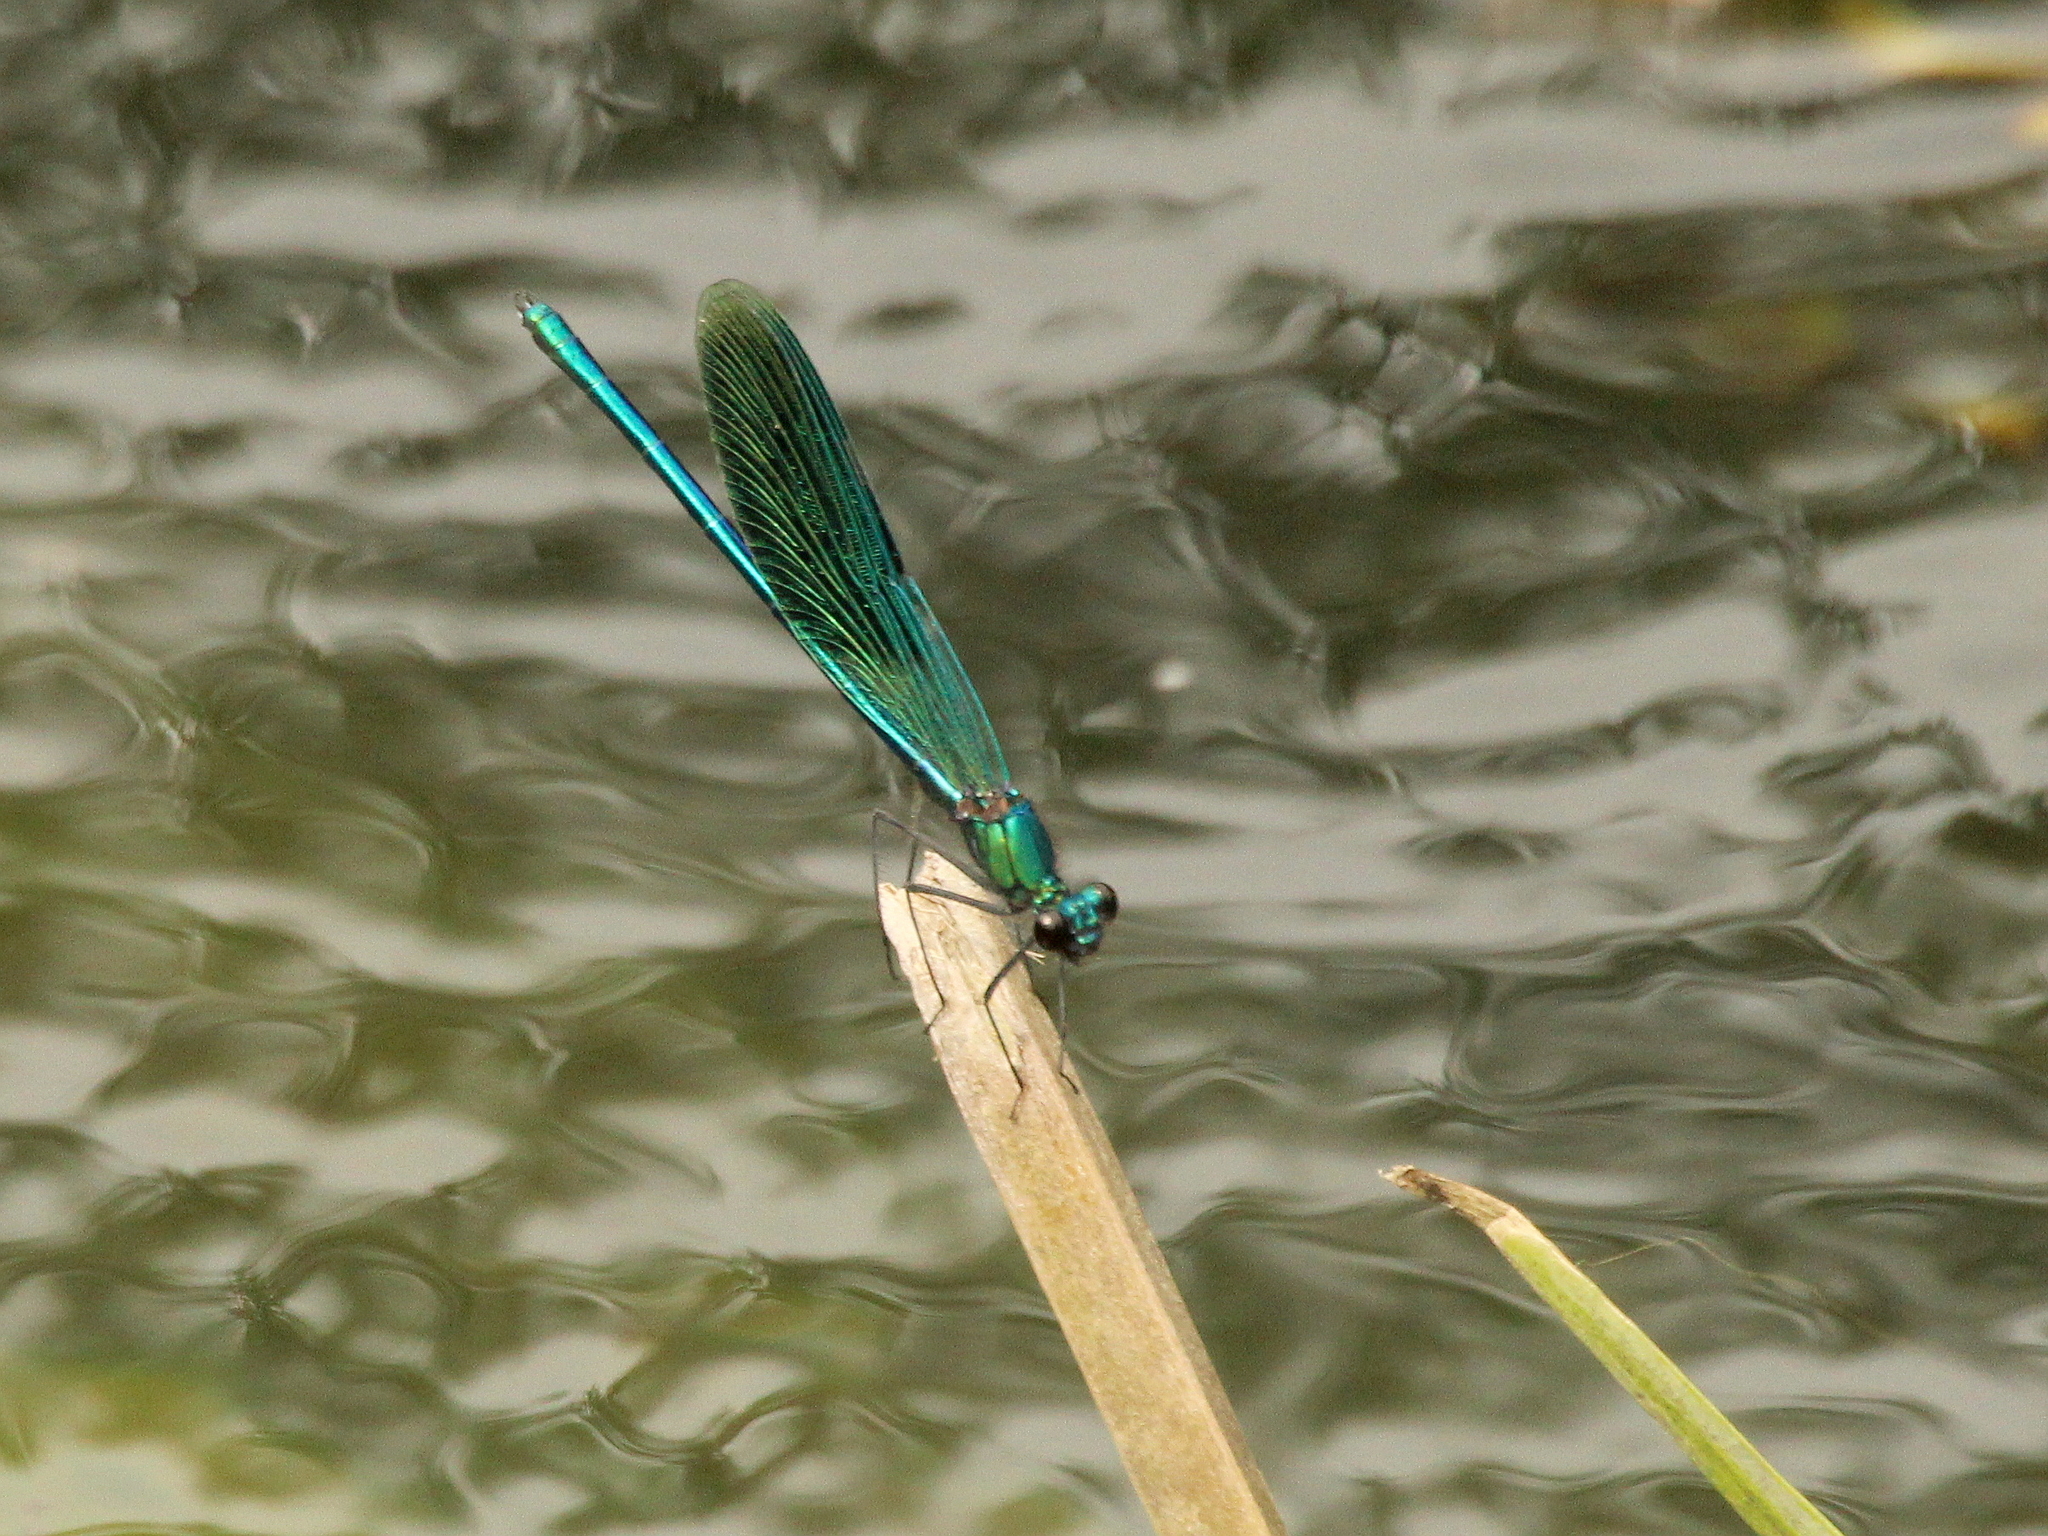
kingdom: Animalia
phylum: Arthropoda
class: Insecta
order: Odonata
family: Calopterygidae
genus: Calopteryx
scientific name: Calopteryx splendens
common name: Banded demoiselle
